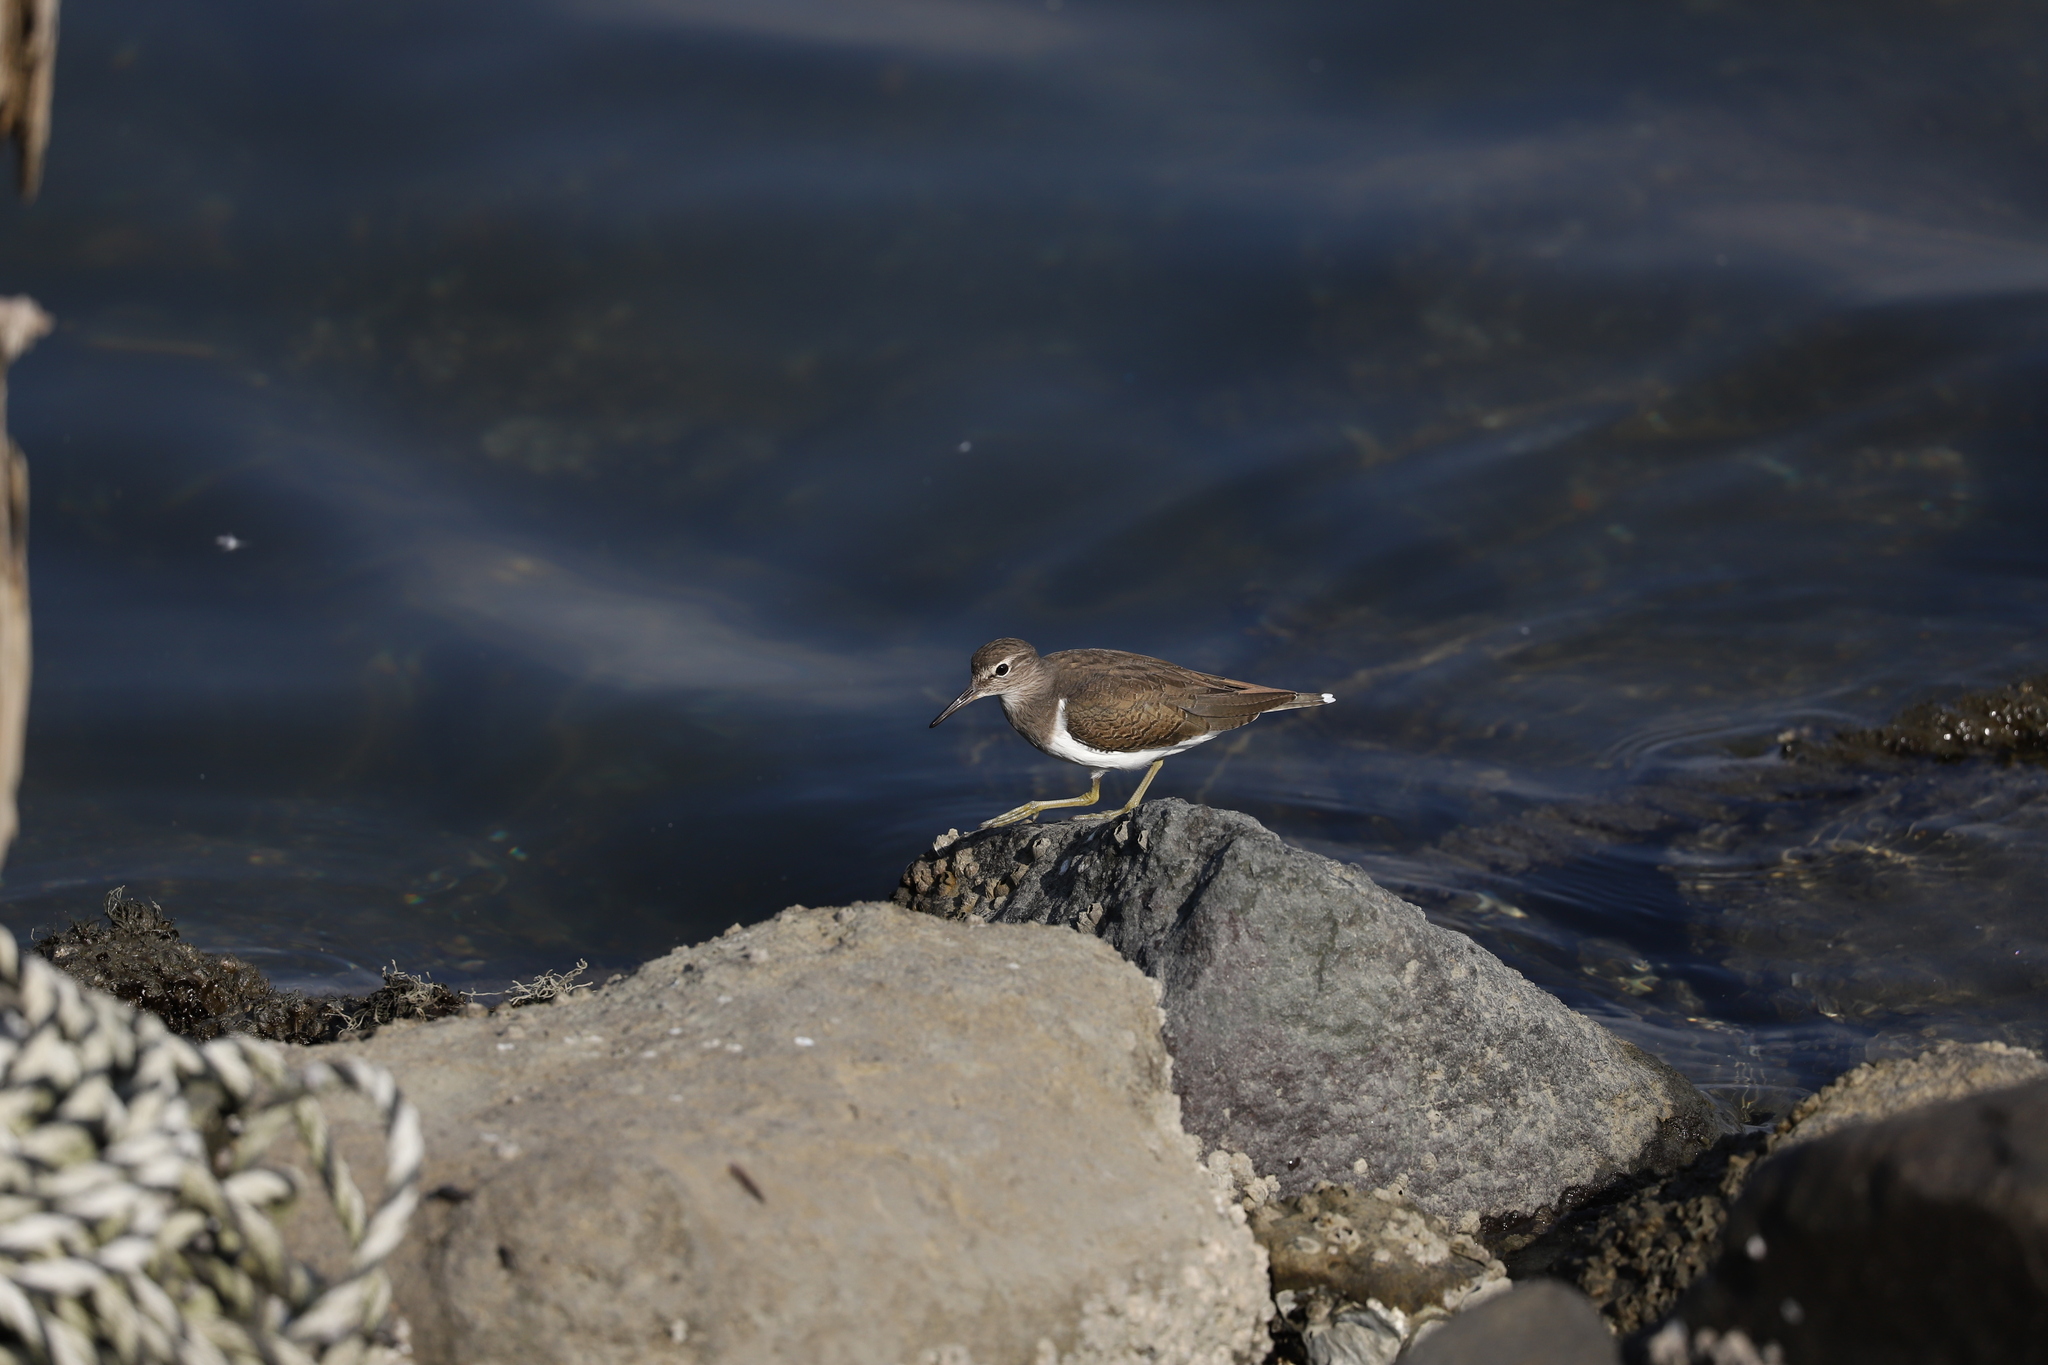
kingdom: Animalia
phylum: Chordata
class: Aves
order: Charadriiformes
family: Scolopacidae
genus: Actitis
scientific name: Actitis hypoleucos
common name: Common sandpiper
